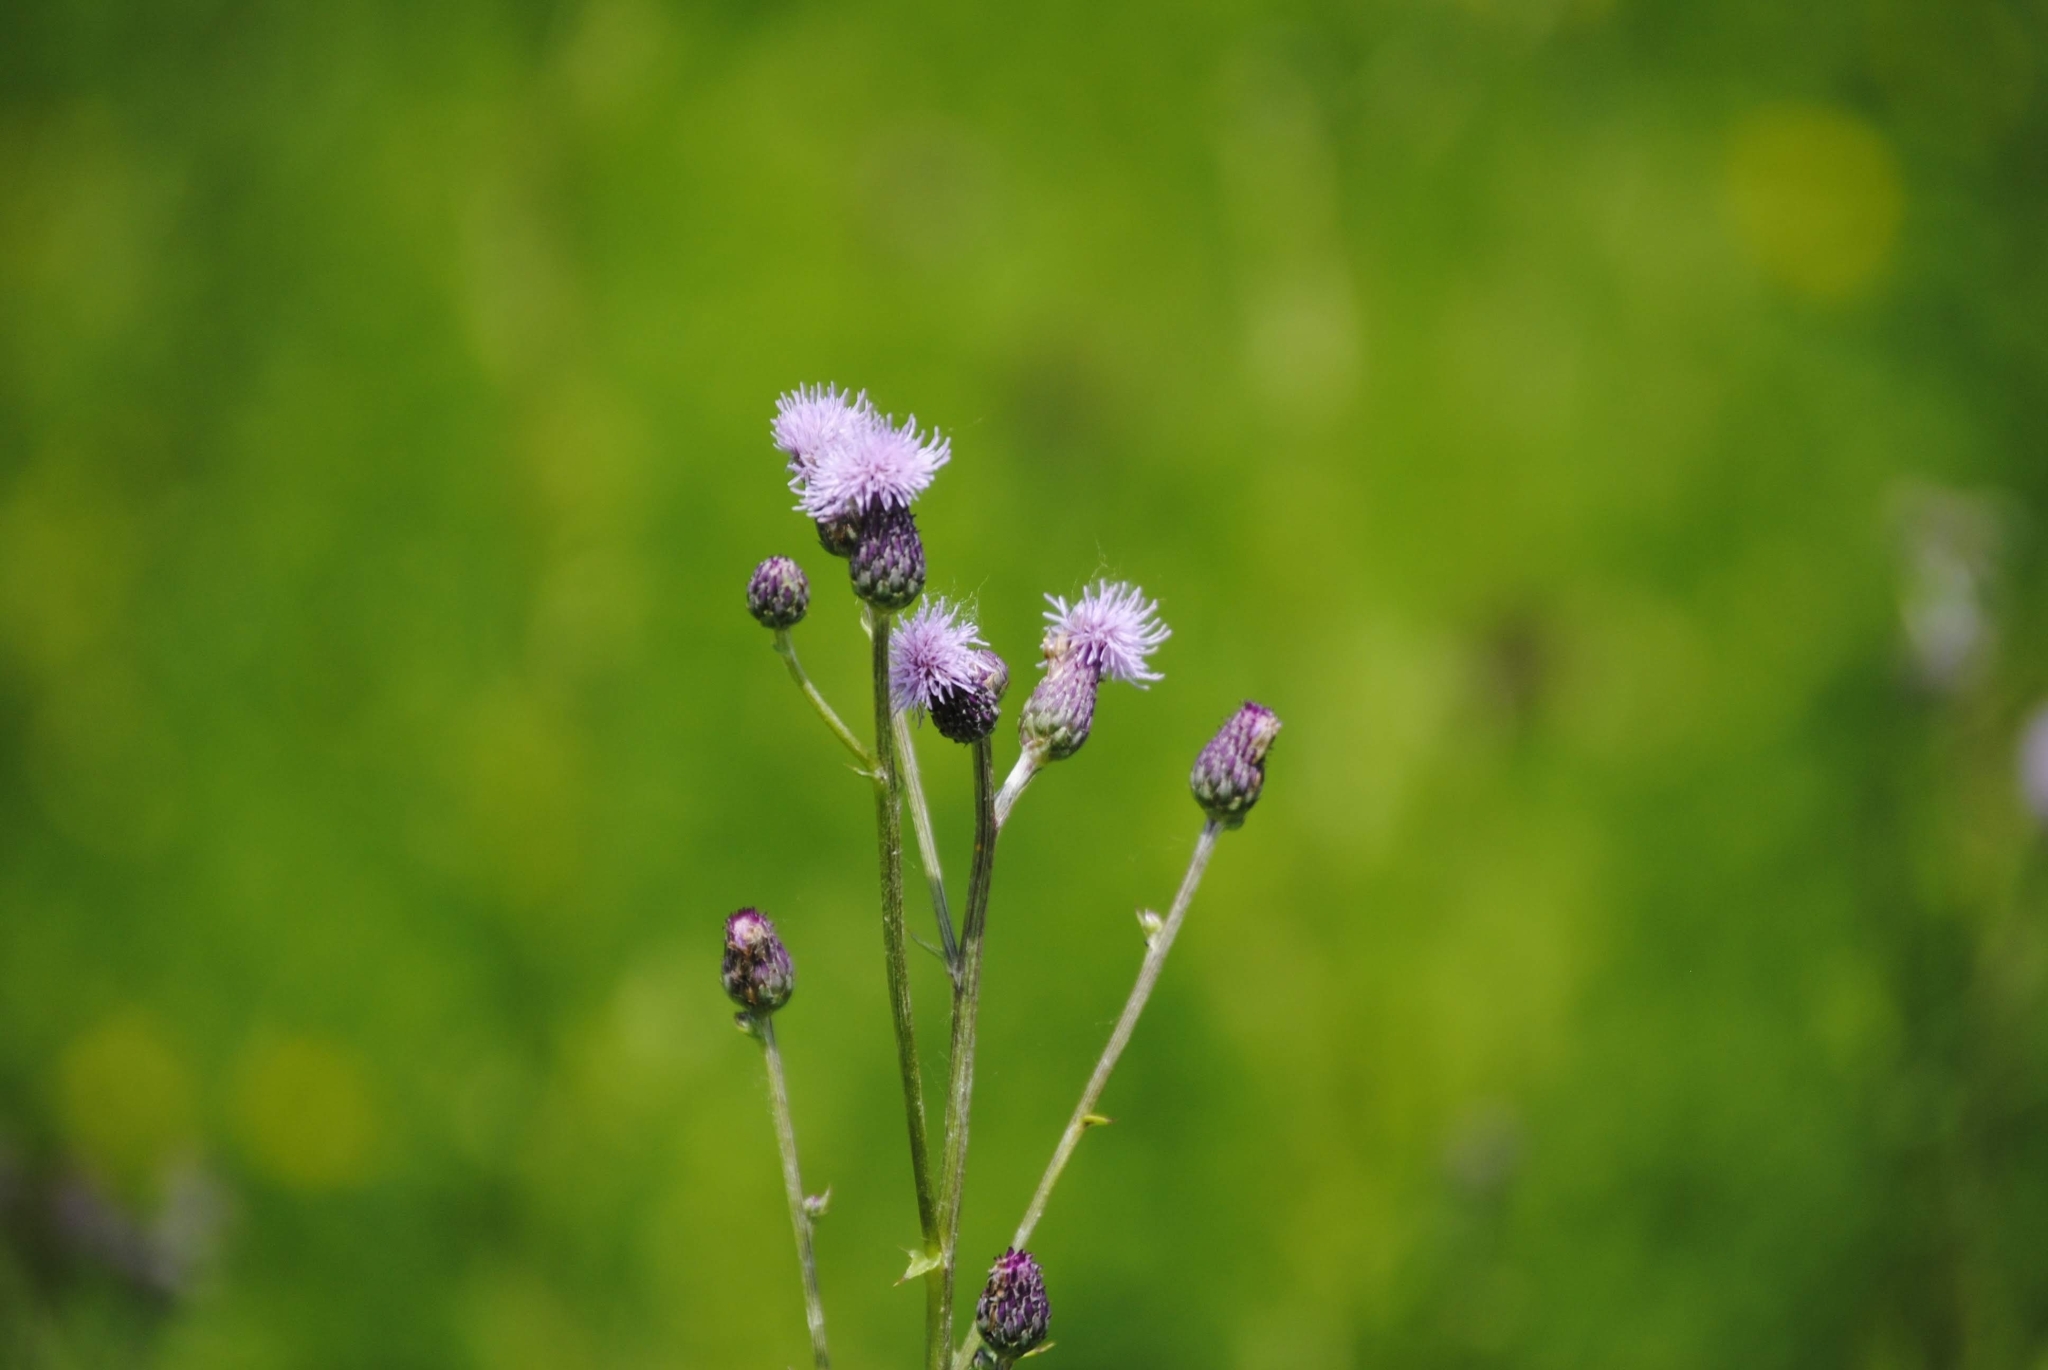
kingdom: Plantae
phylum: Tracheophyta
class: Magnoliopsida
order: Asterales
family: Asteraceae
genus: Cirsium
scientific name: Cirsium arvense
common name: Creeping thistle
